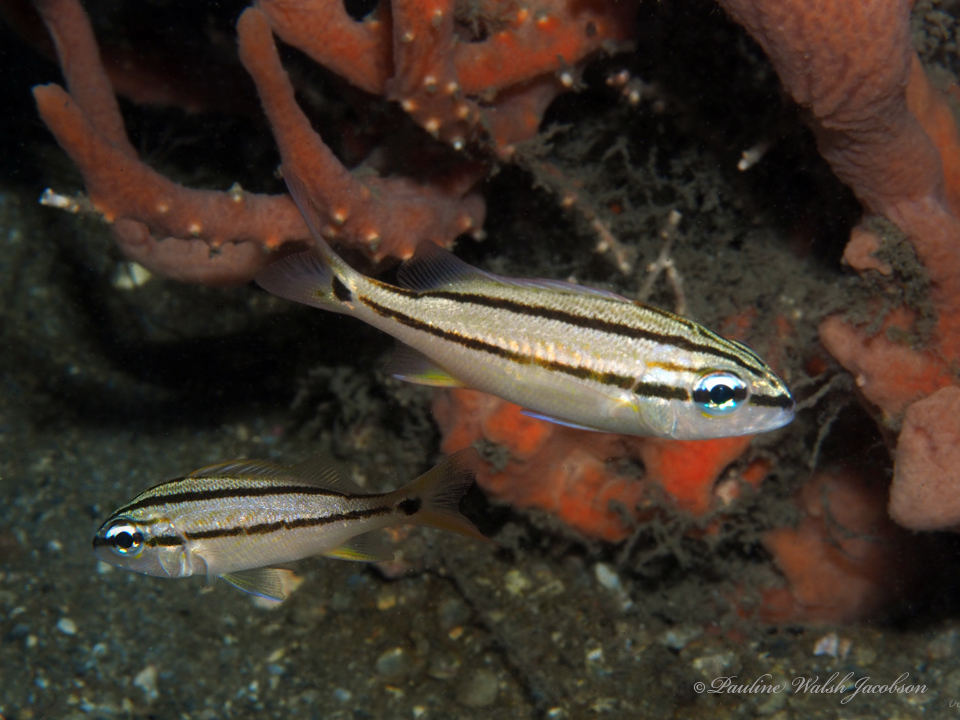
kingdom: Animalia
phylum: Chordata
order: Perciformes
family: Haemulidae
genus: Haemulon
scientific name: Haemulon flavolineatum
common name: French grunt
